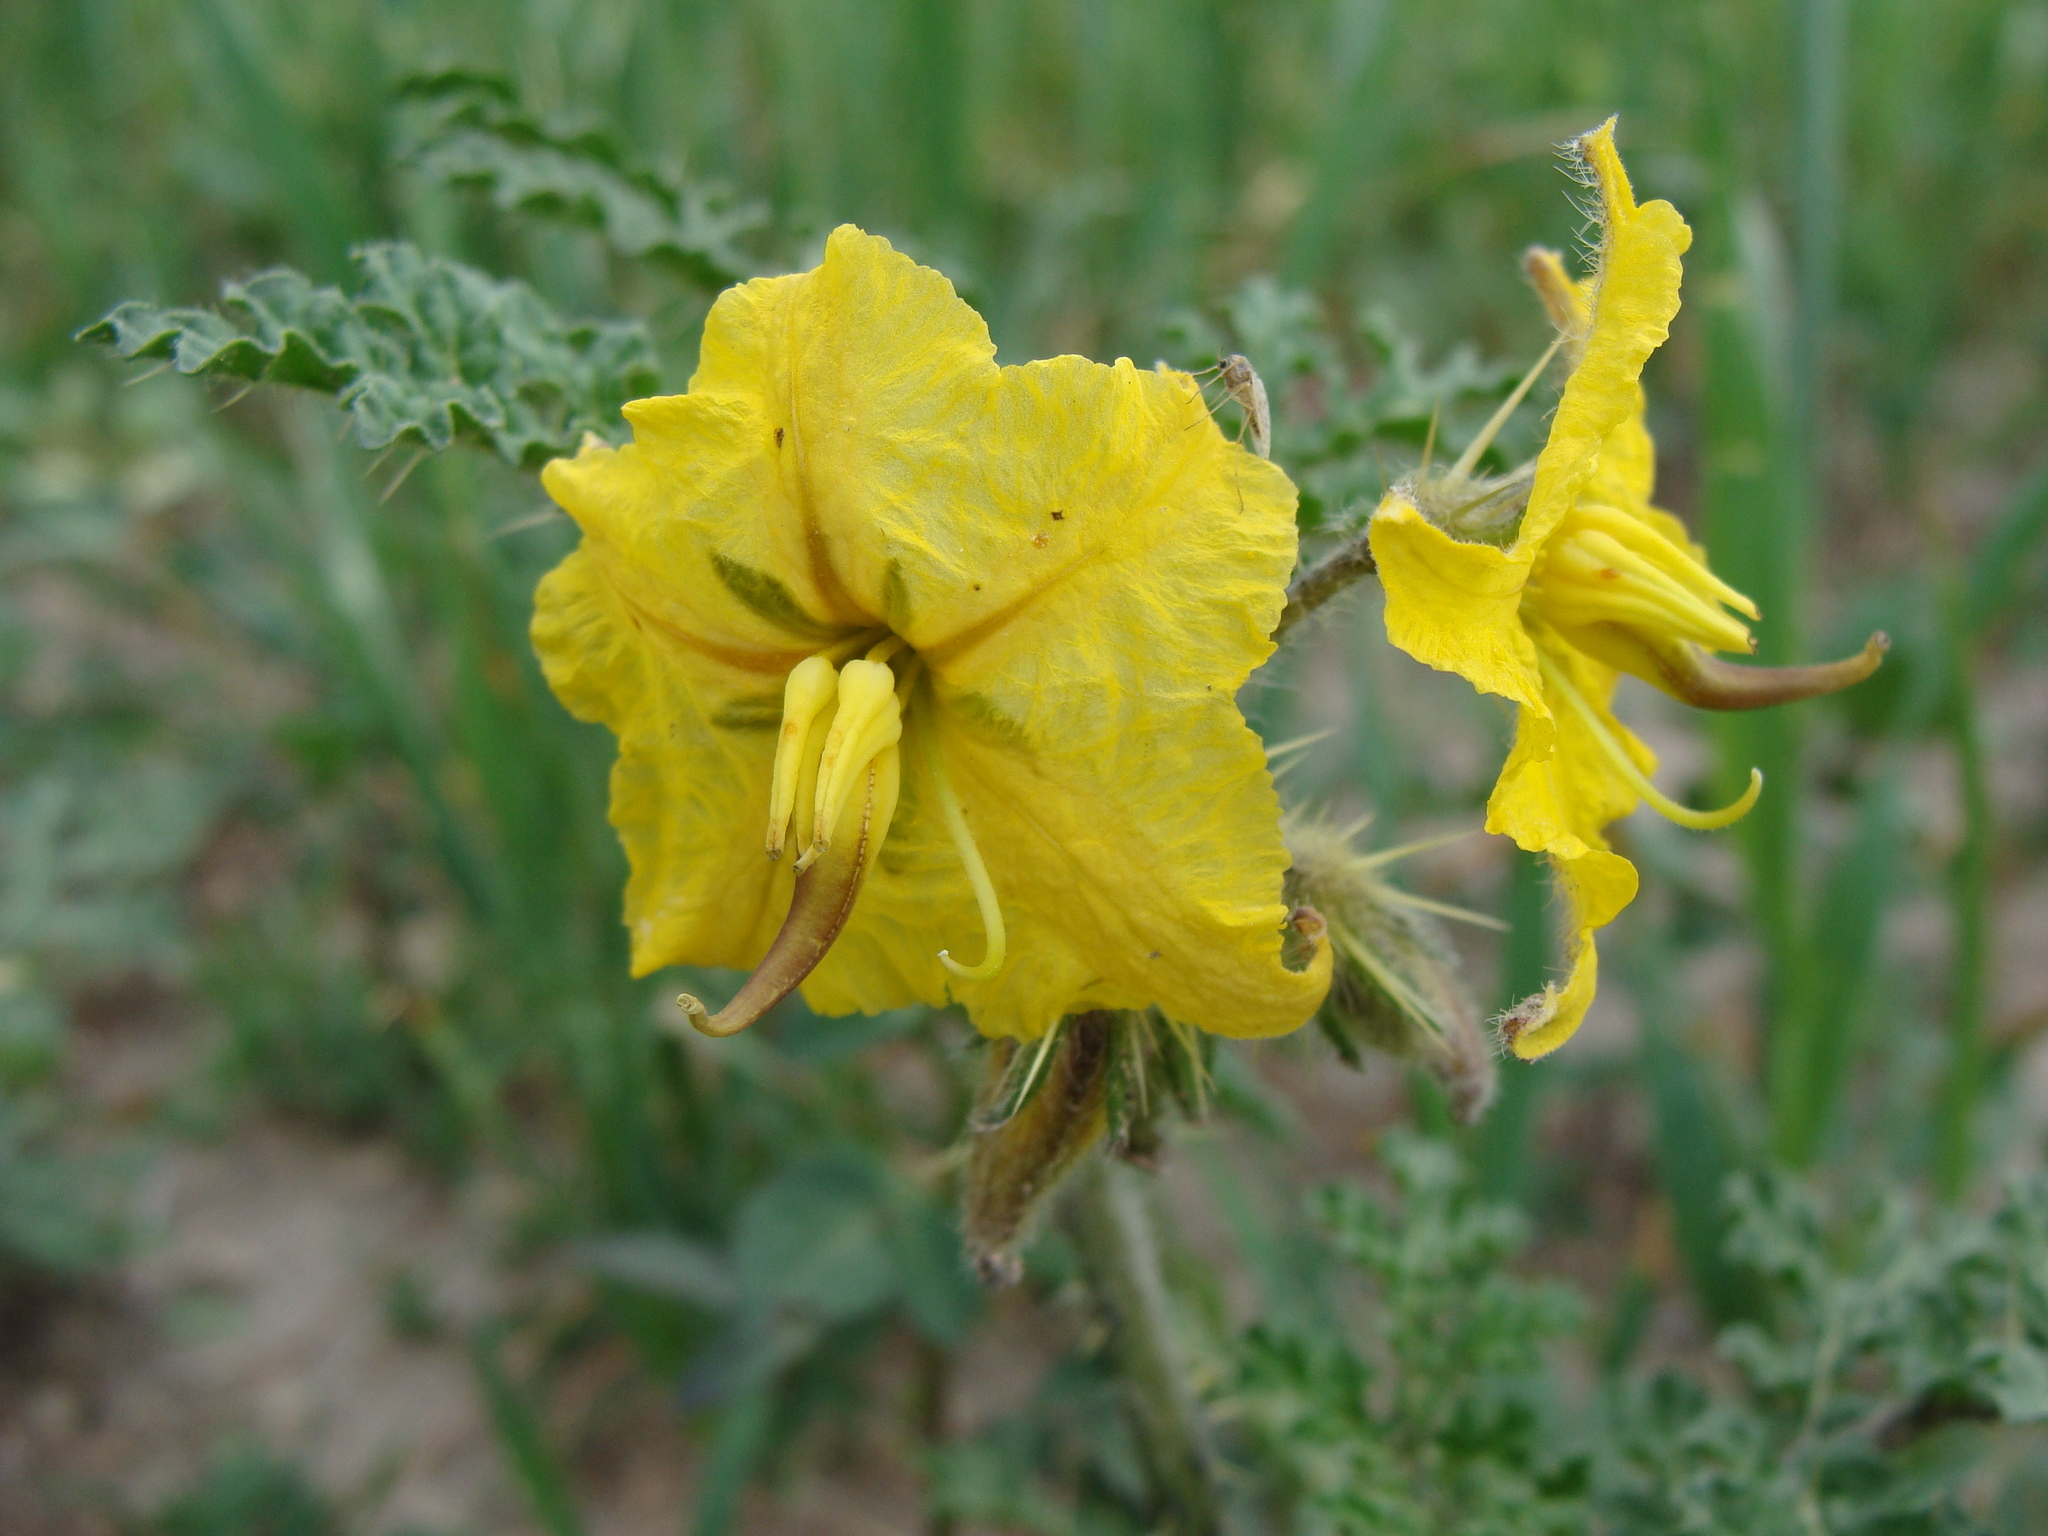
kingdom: Plantae
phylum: Tracheophyta
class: Magnoliopsida
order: Solanales
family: Solanaceae
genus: Solanum
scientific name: Solanum angustifolium
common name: Buffalobur nightshade
